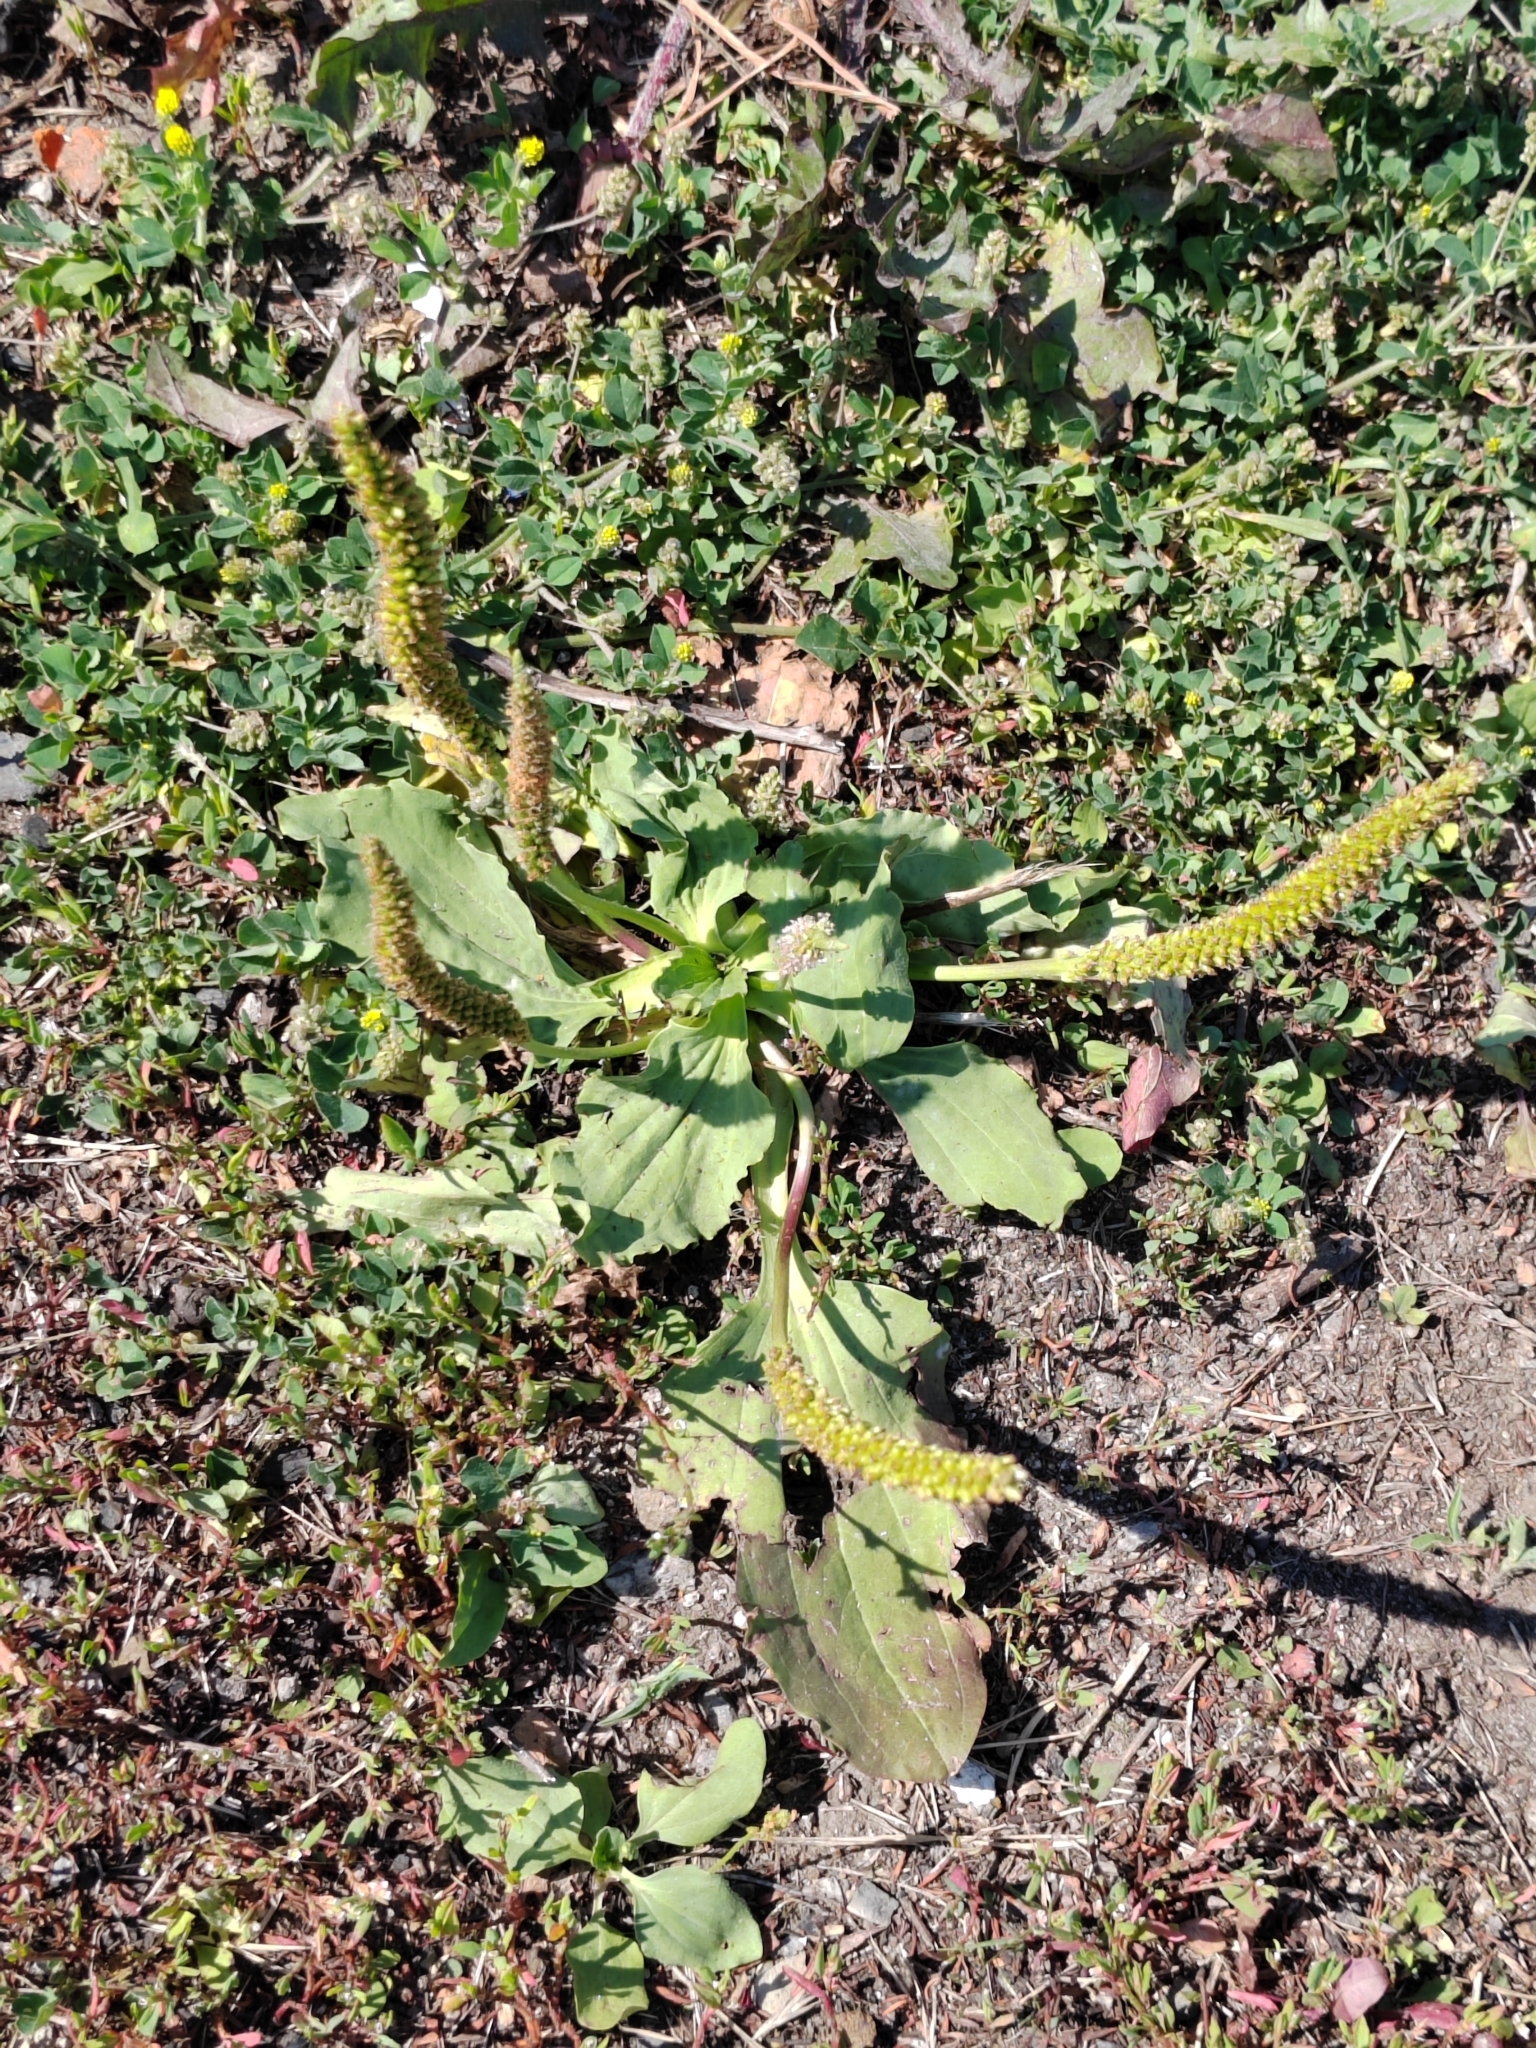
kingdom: Plantae
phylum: Tracheophyta
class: Magnoliopsida
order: Lamiales
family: Plantaginaceae
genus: Plantago
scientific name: Plantago major
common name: Common plantain
